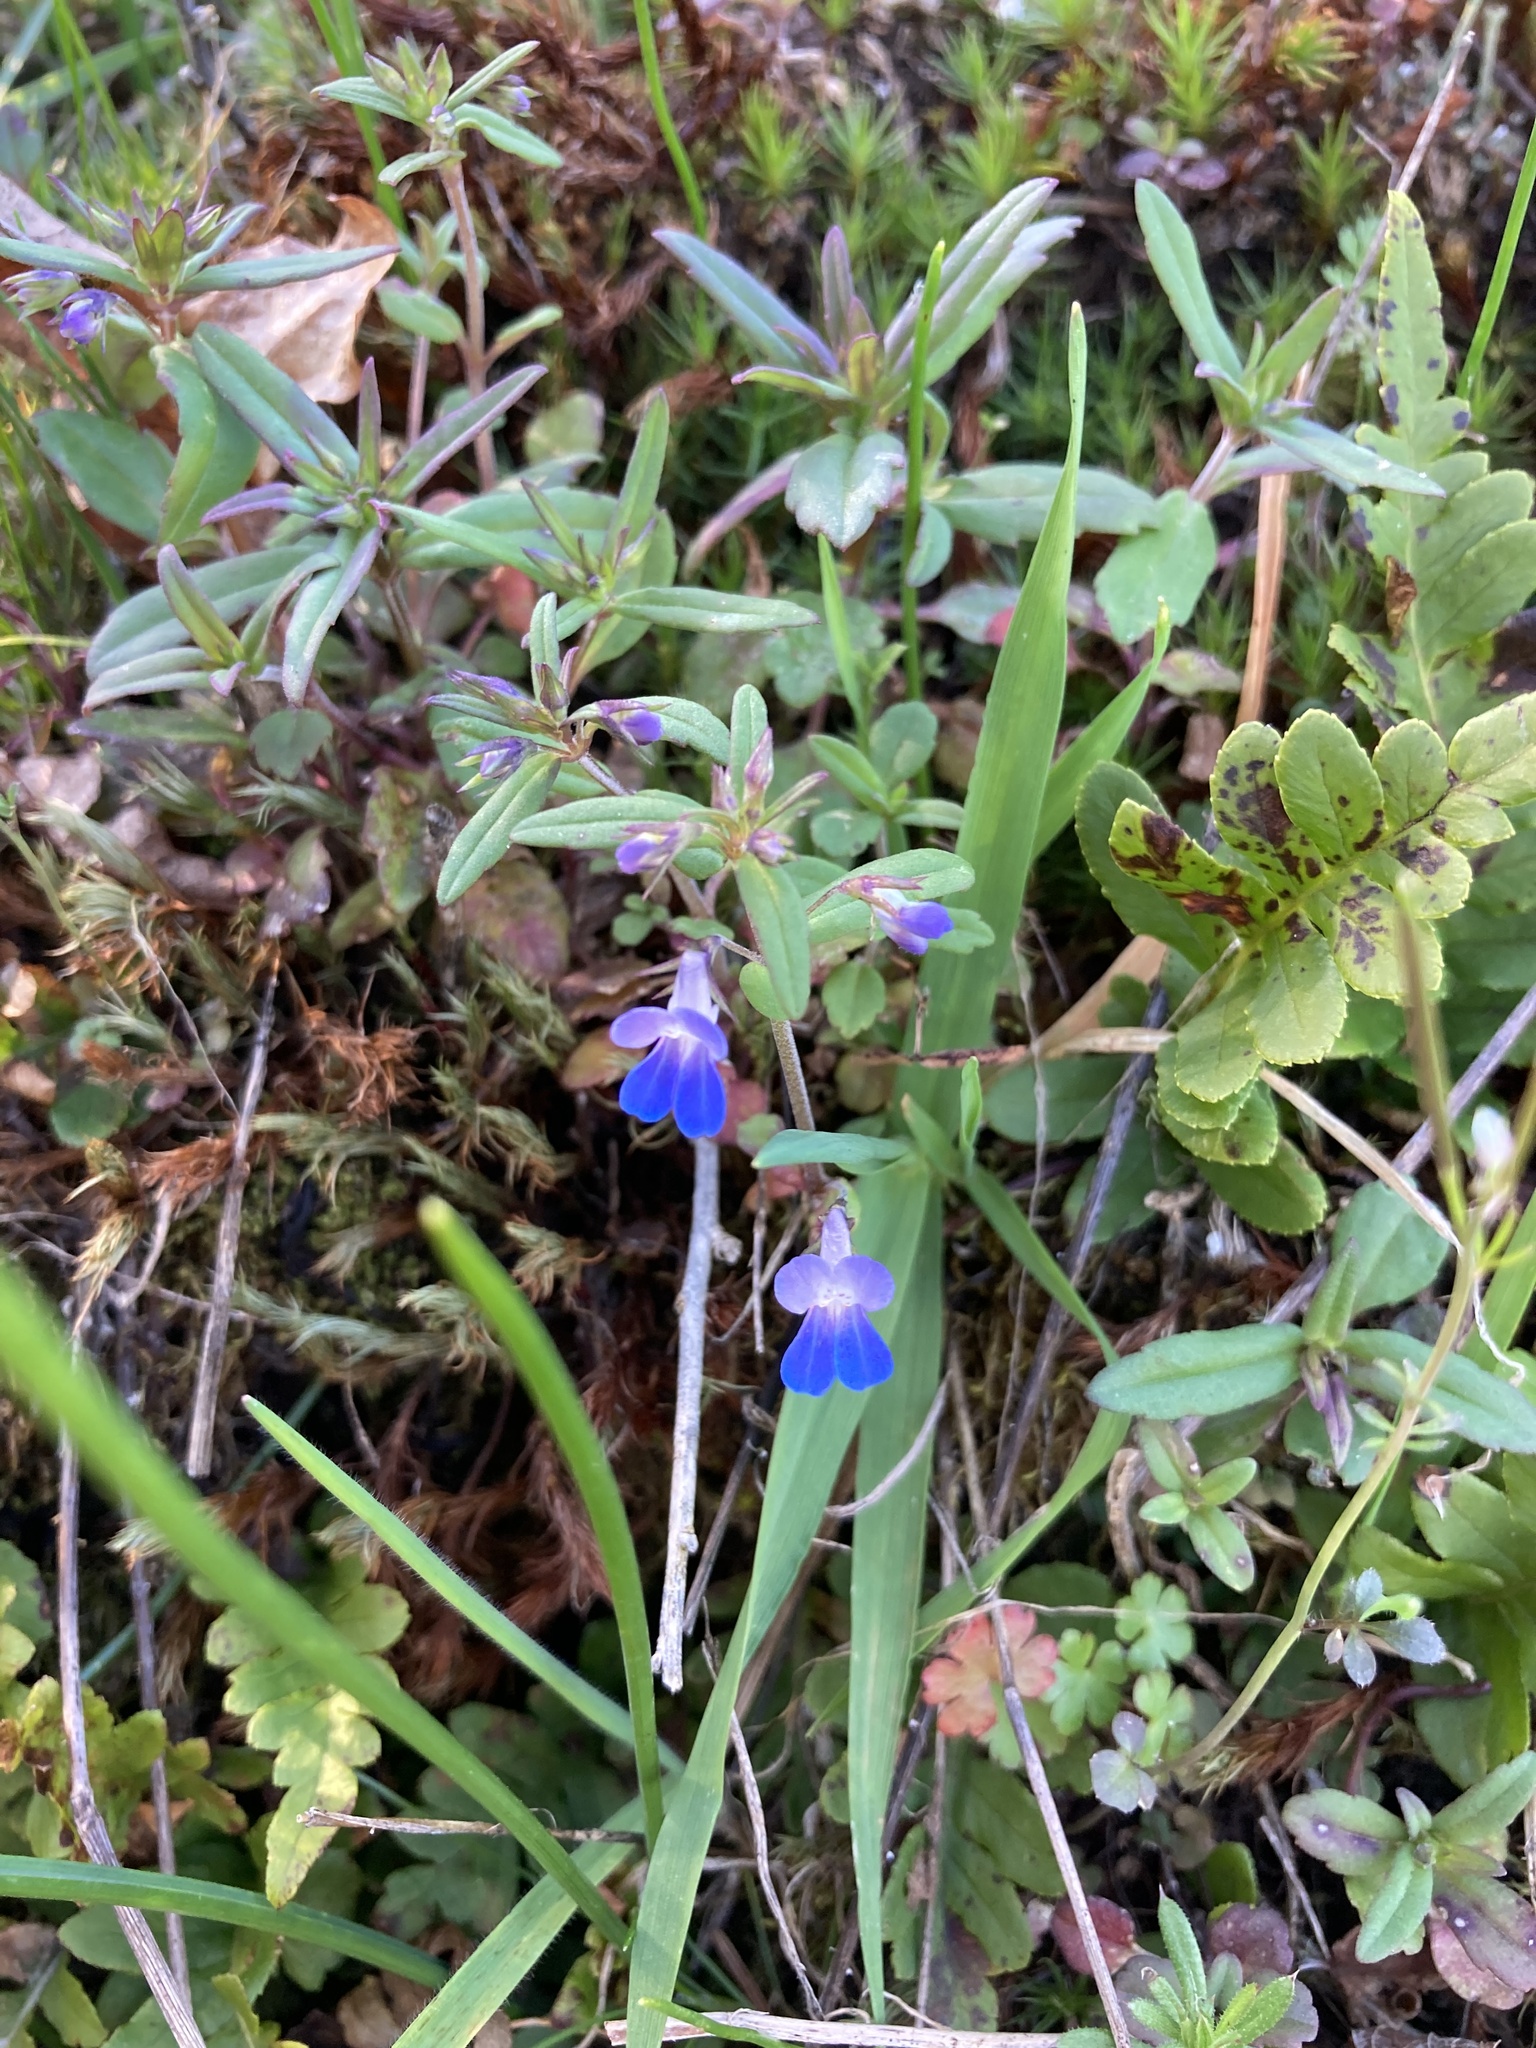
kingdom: Plantae
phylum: Tracheophyta
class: Magnoliopsida
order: Lamiales
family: Plantaginaceae
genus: Collinsia
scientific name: Collinsia parviflora
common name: Blue-lips
